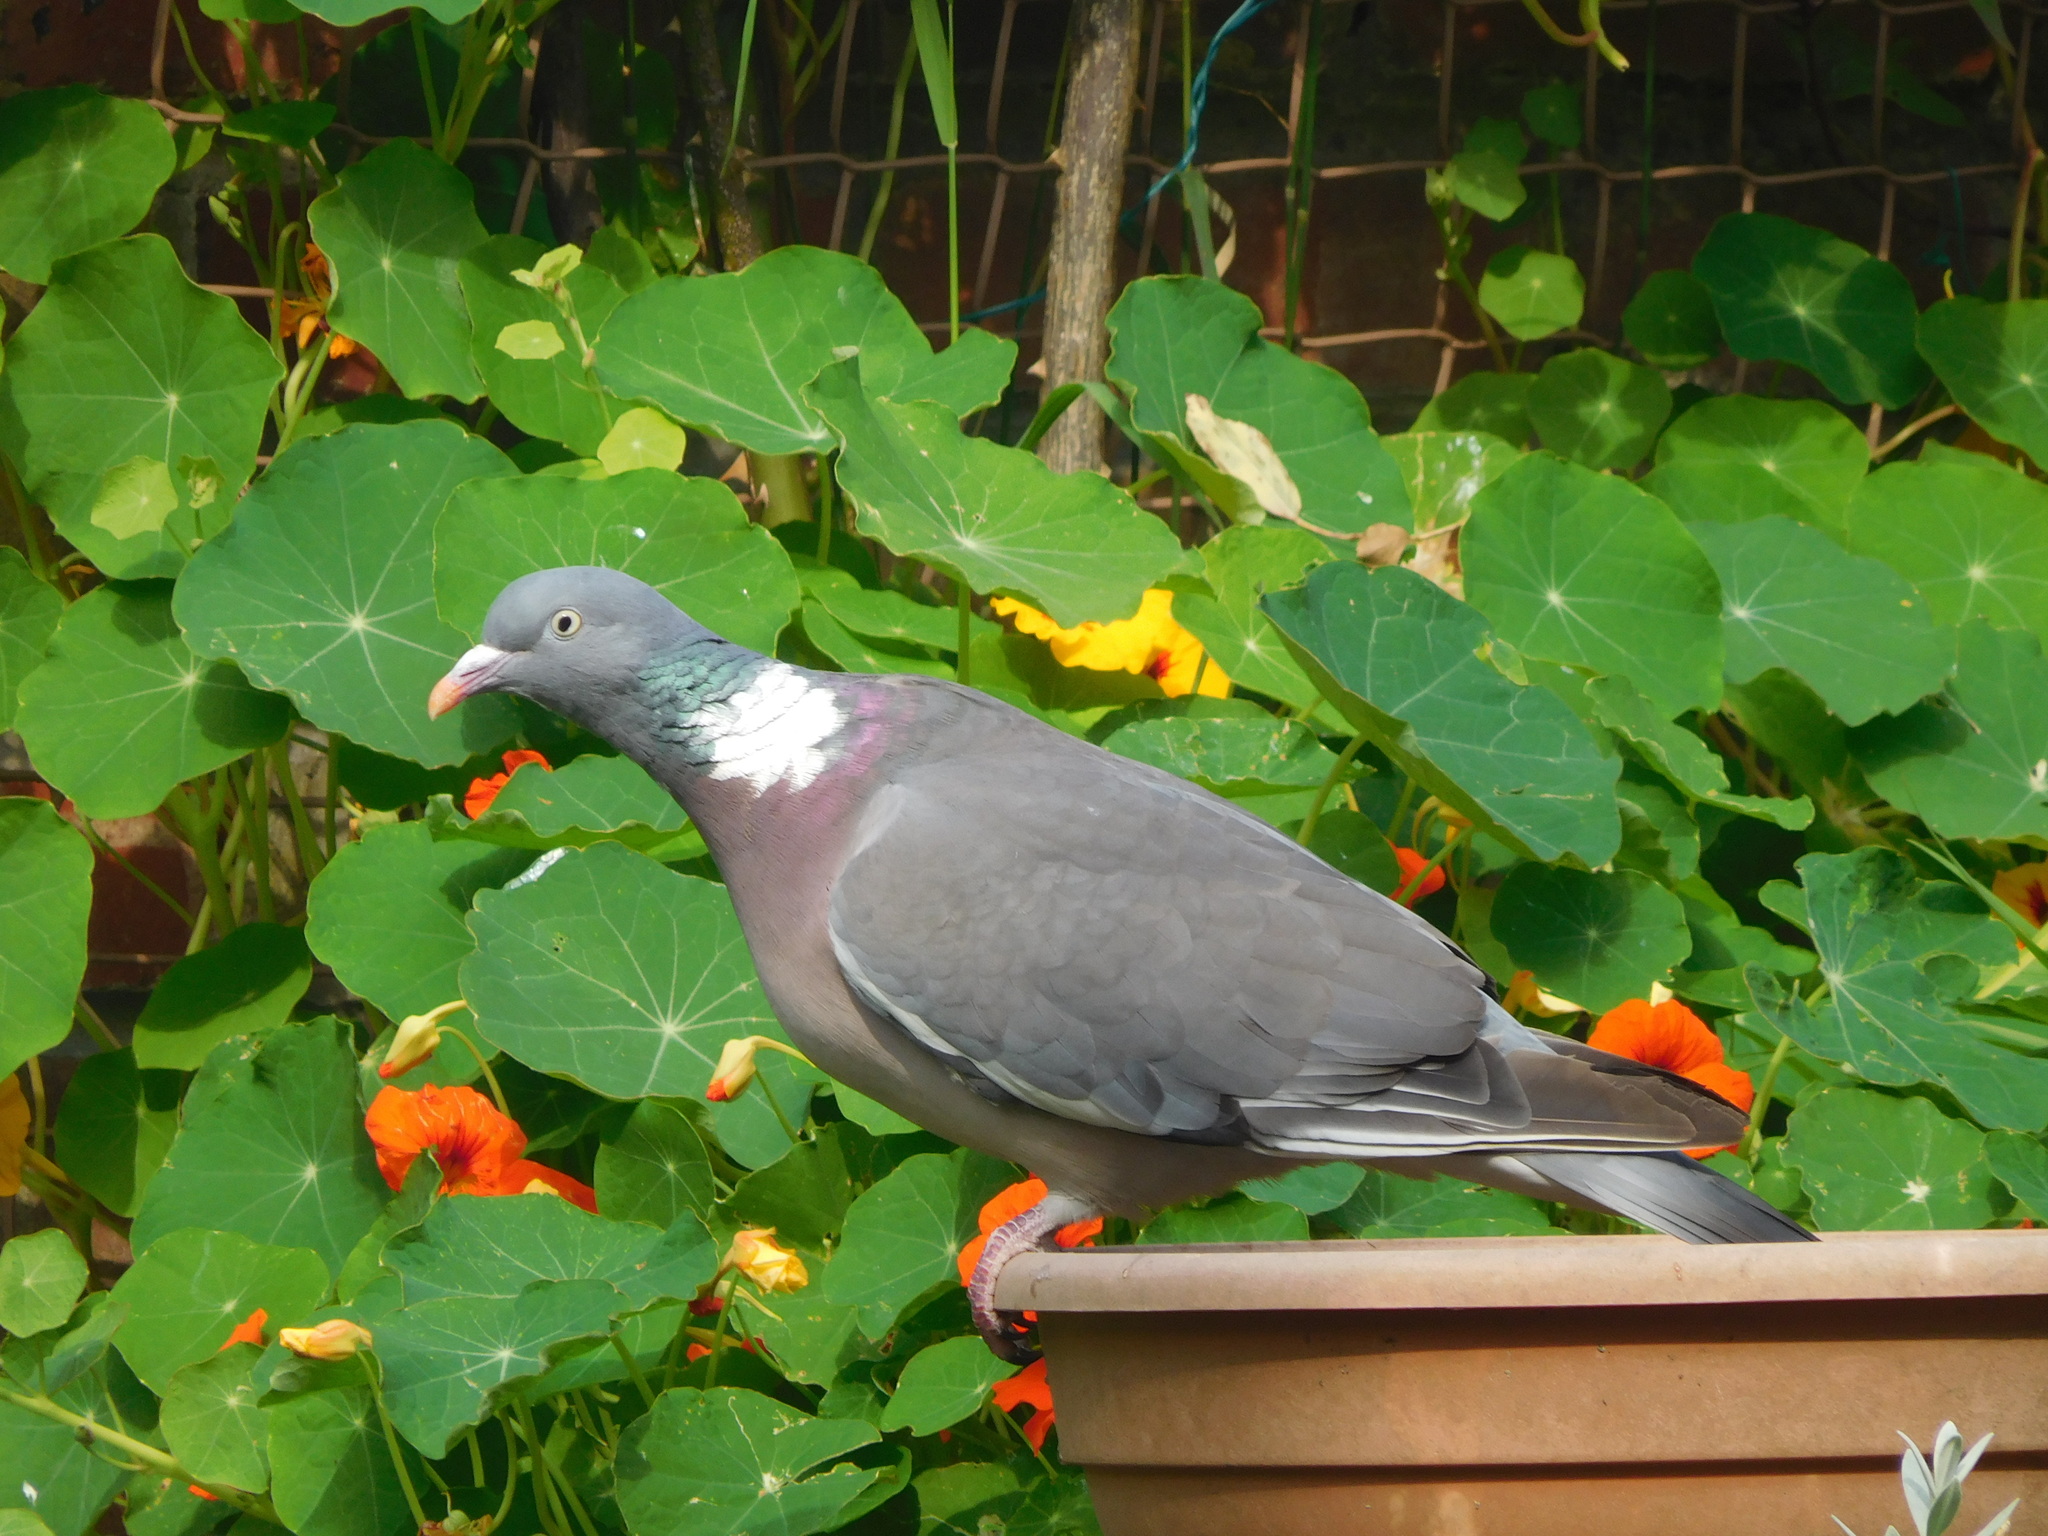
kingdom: Animalia
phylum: Chordata
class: Aves
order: Columbiformes
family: Columbidae
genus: Columba
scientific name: Columba palumbus
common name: Common wood pigeon
